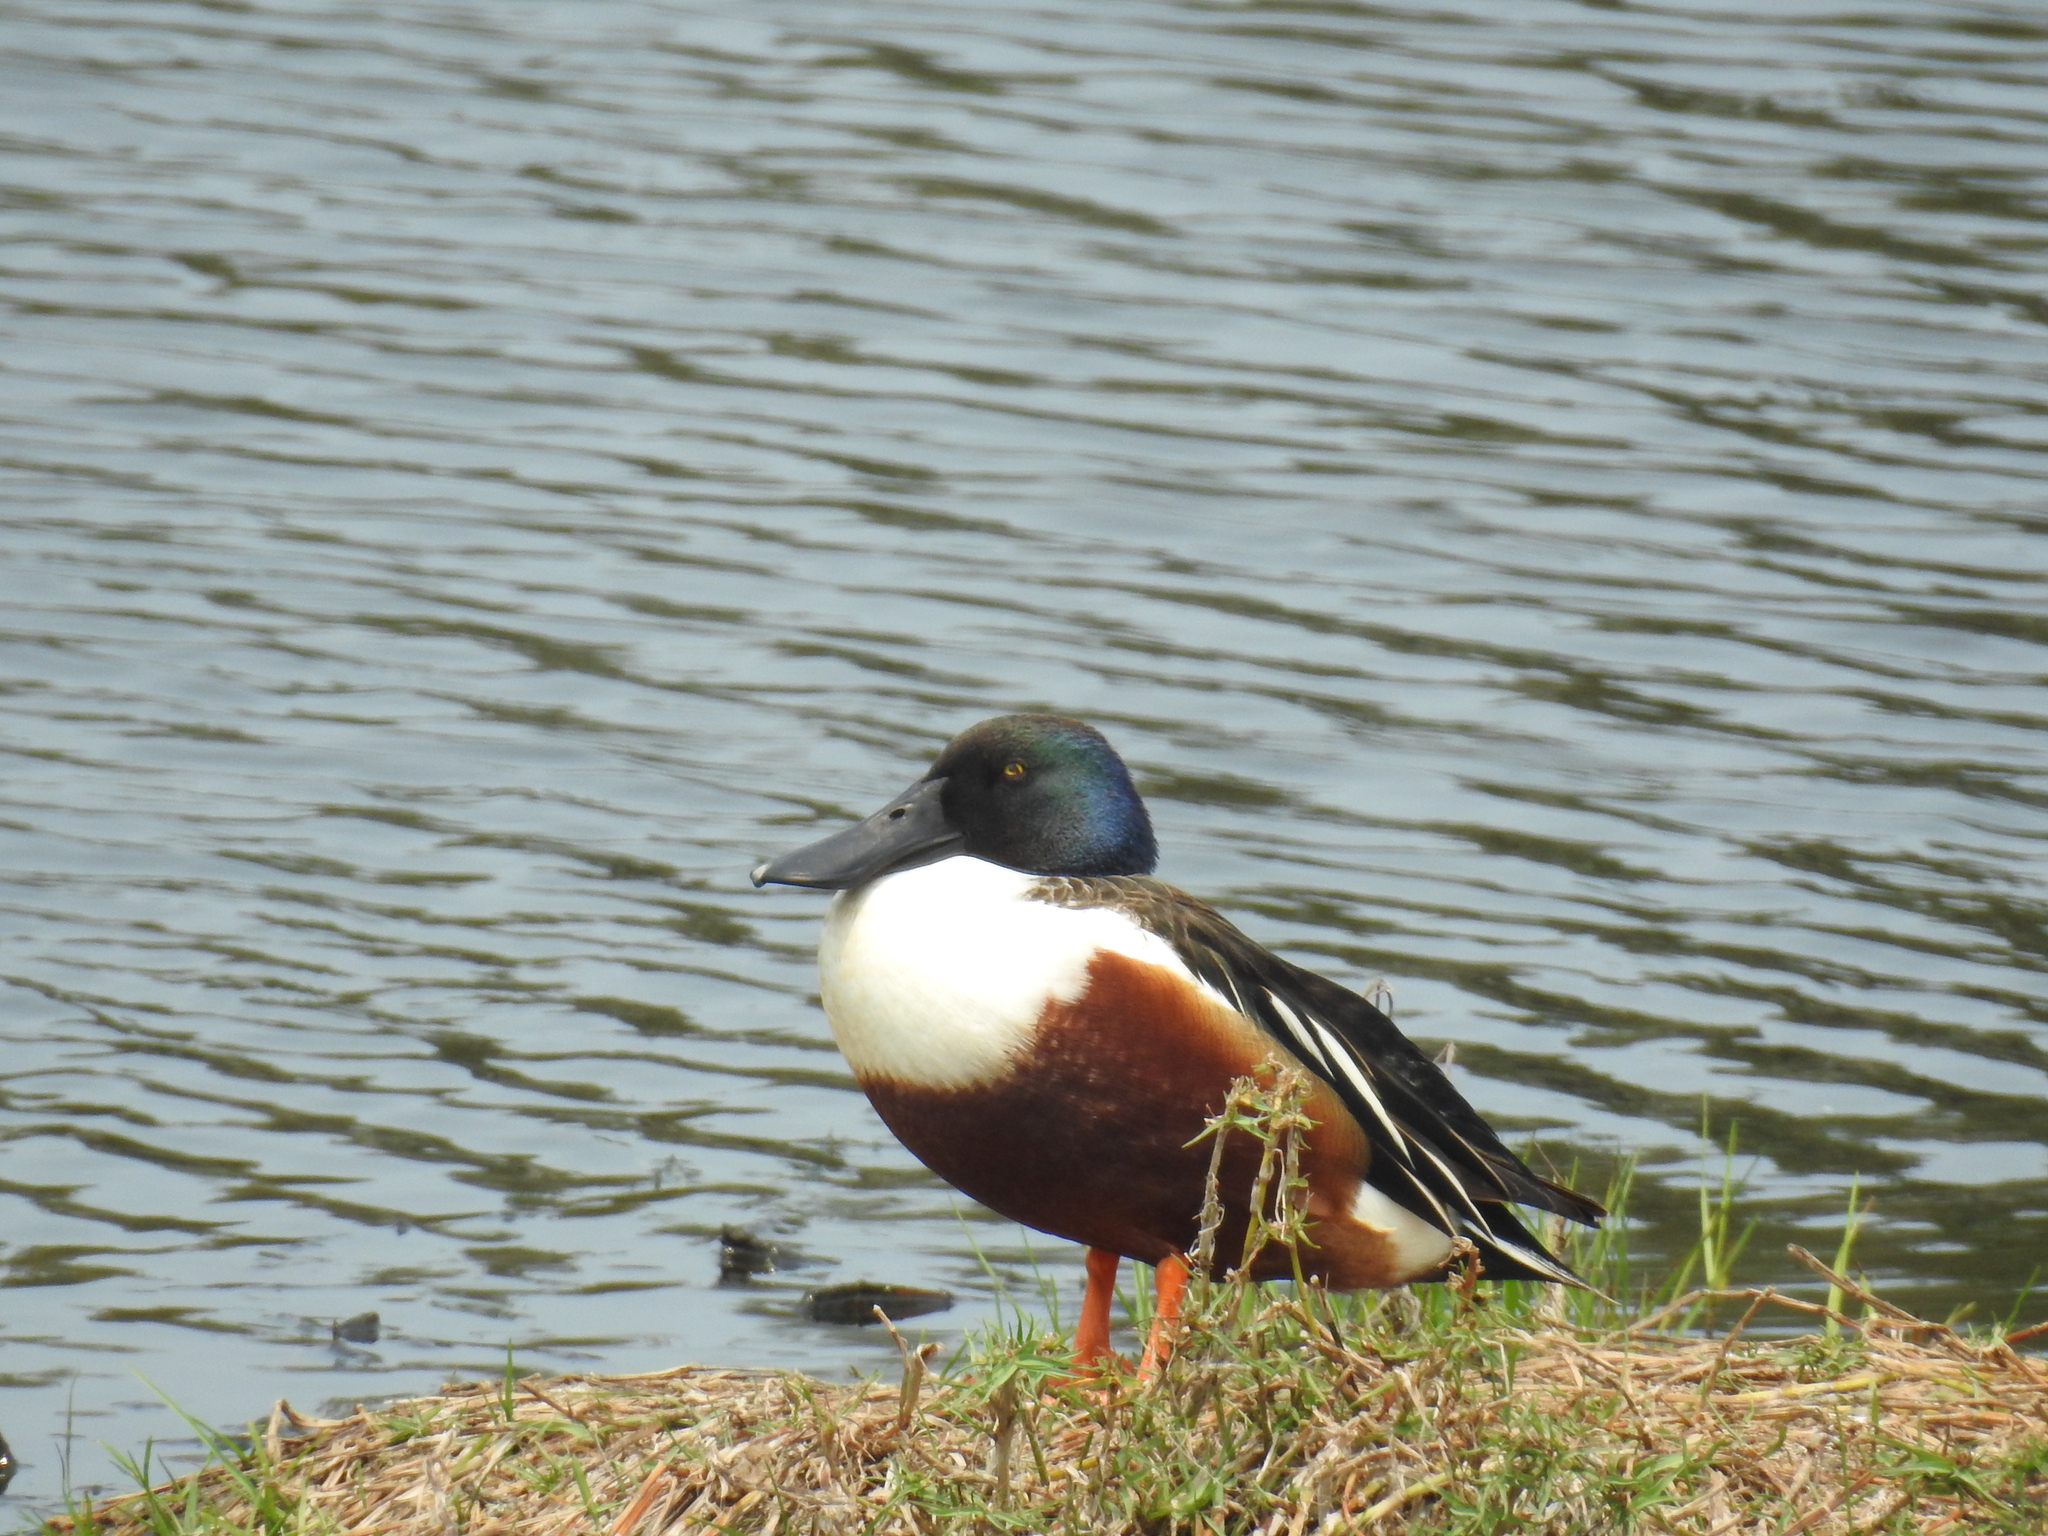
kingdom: Animalia
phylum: Chordata
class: Aves
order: Anseriformes
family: Anatidae
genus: Spatula
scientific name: Spatula clypeata
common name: Northern shoveler
